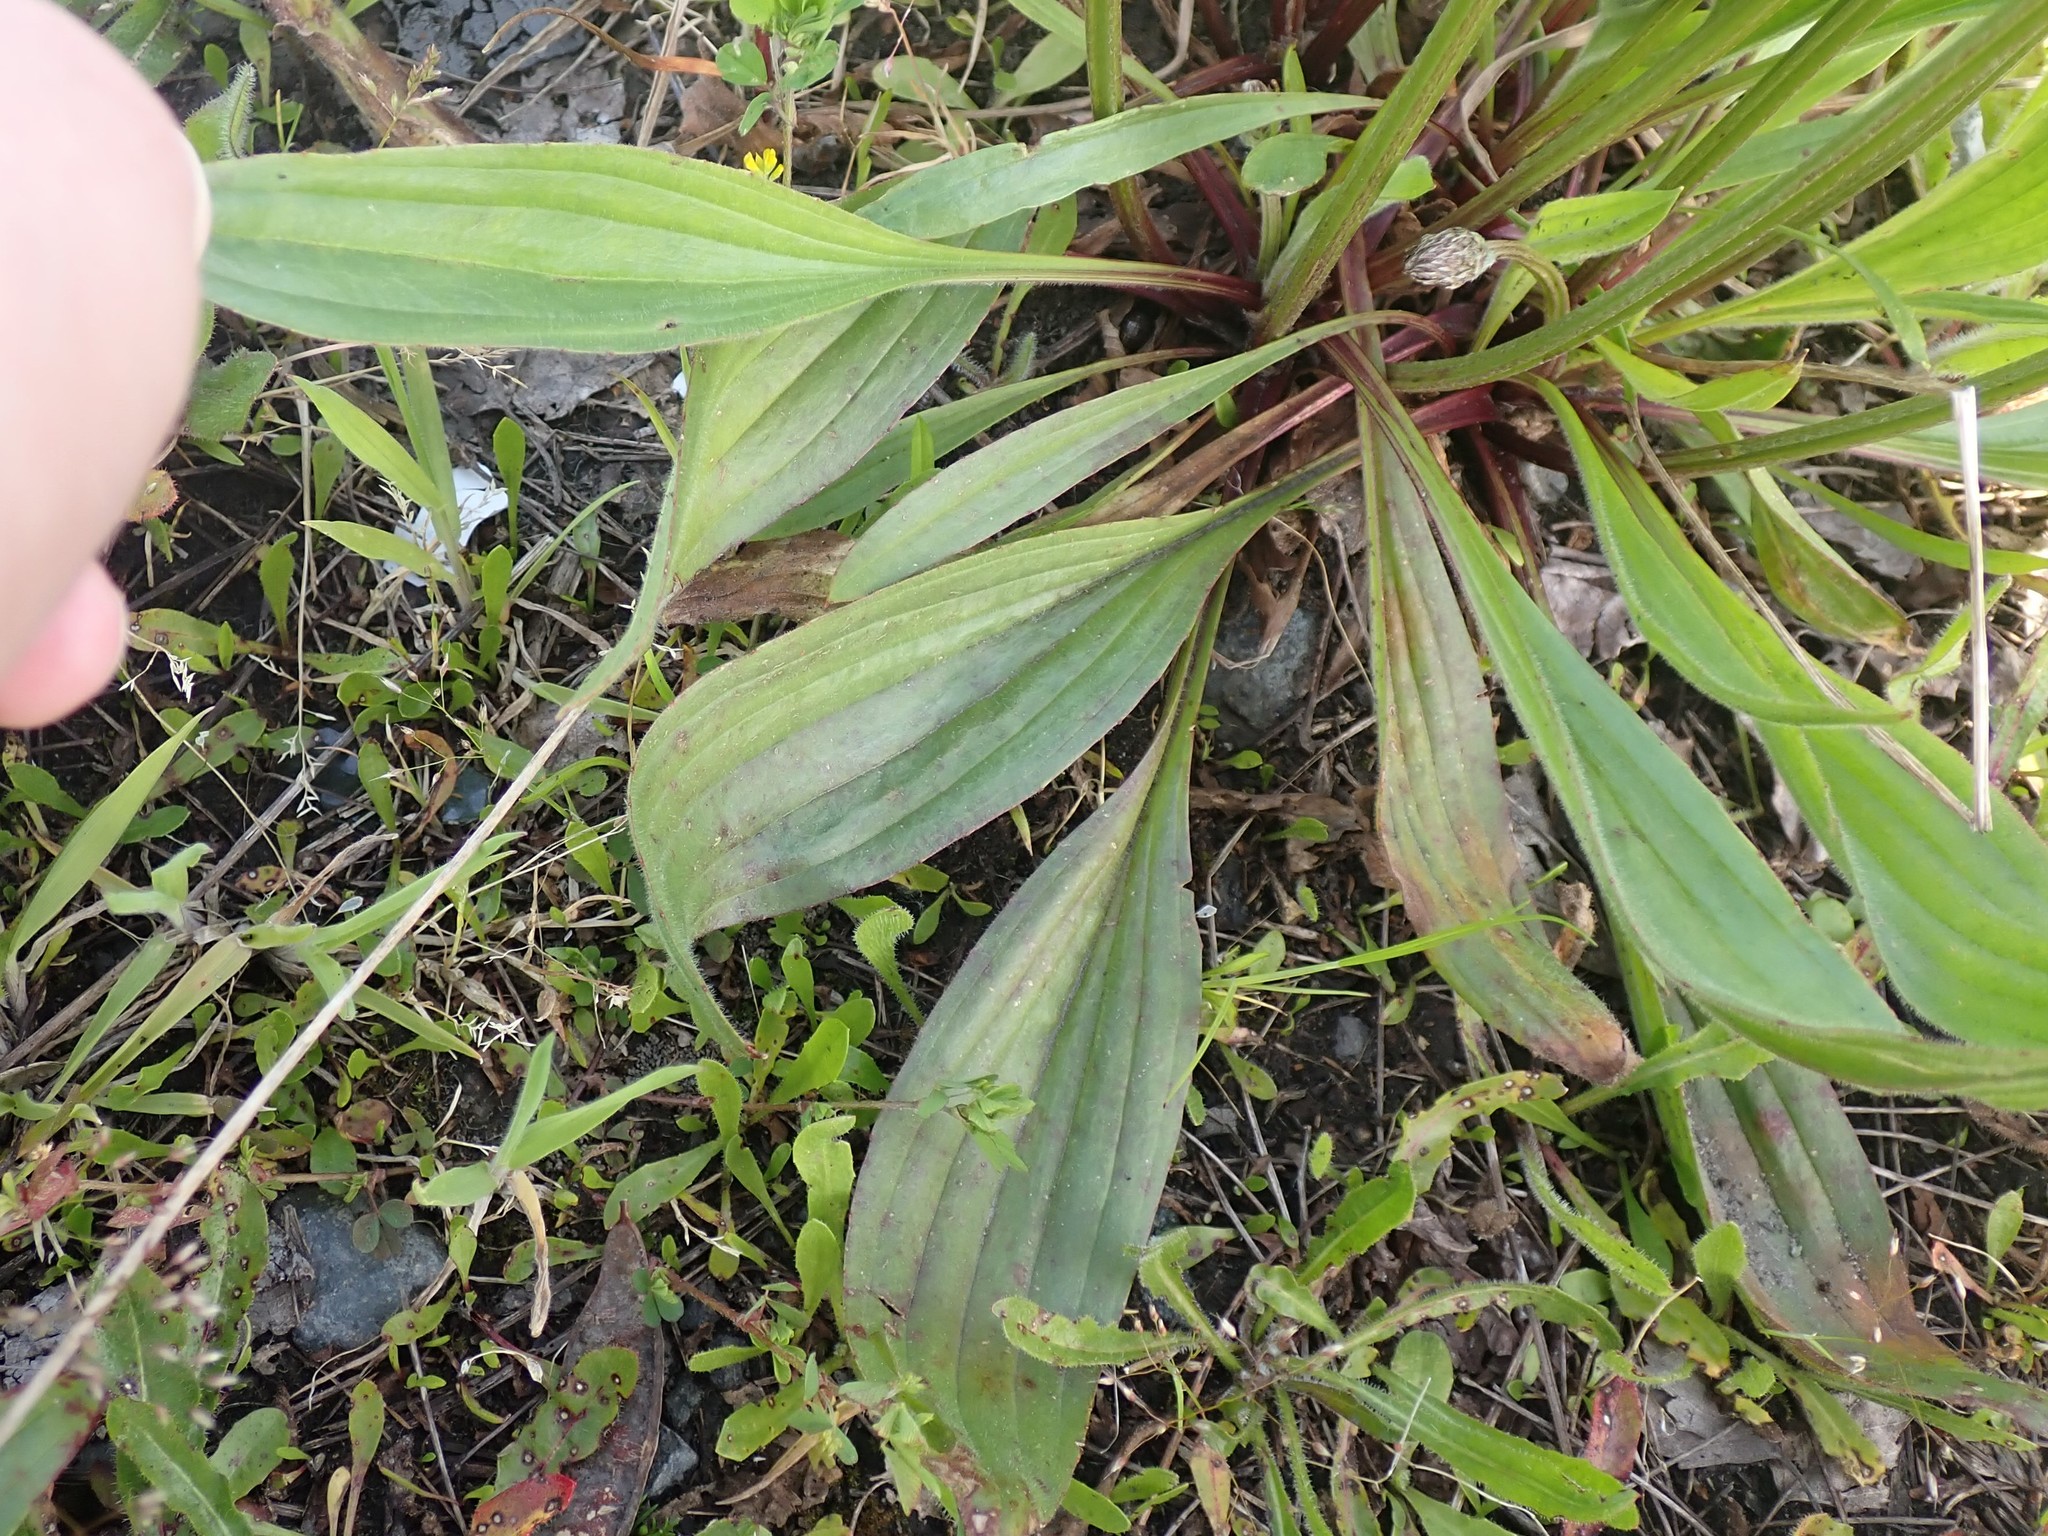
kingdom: Plantae
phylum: Tracheophyta
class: Magnoliopsida
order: Lamiales
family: Plantaginaceae
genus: Plantago
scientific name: Plantago lanceolata
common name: Ribwort plantain
